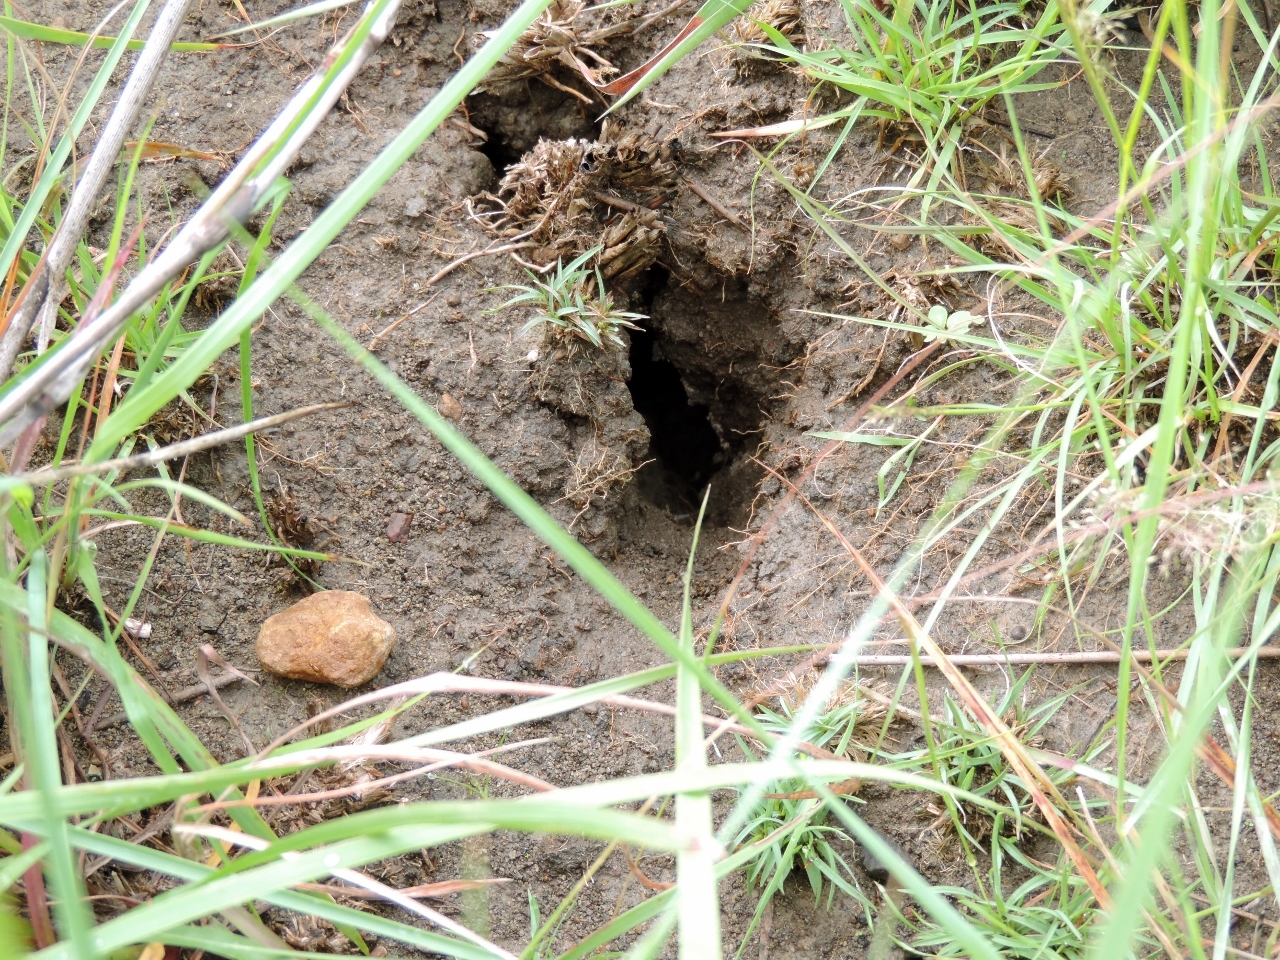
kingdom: Animalia
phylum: Chordata
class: Amphibia
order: Anura
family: Microhylidae
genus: Phrynomantis
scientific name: Phrynomantis bifasciatus
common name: Banded rubber frog
